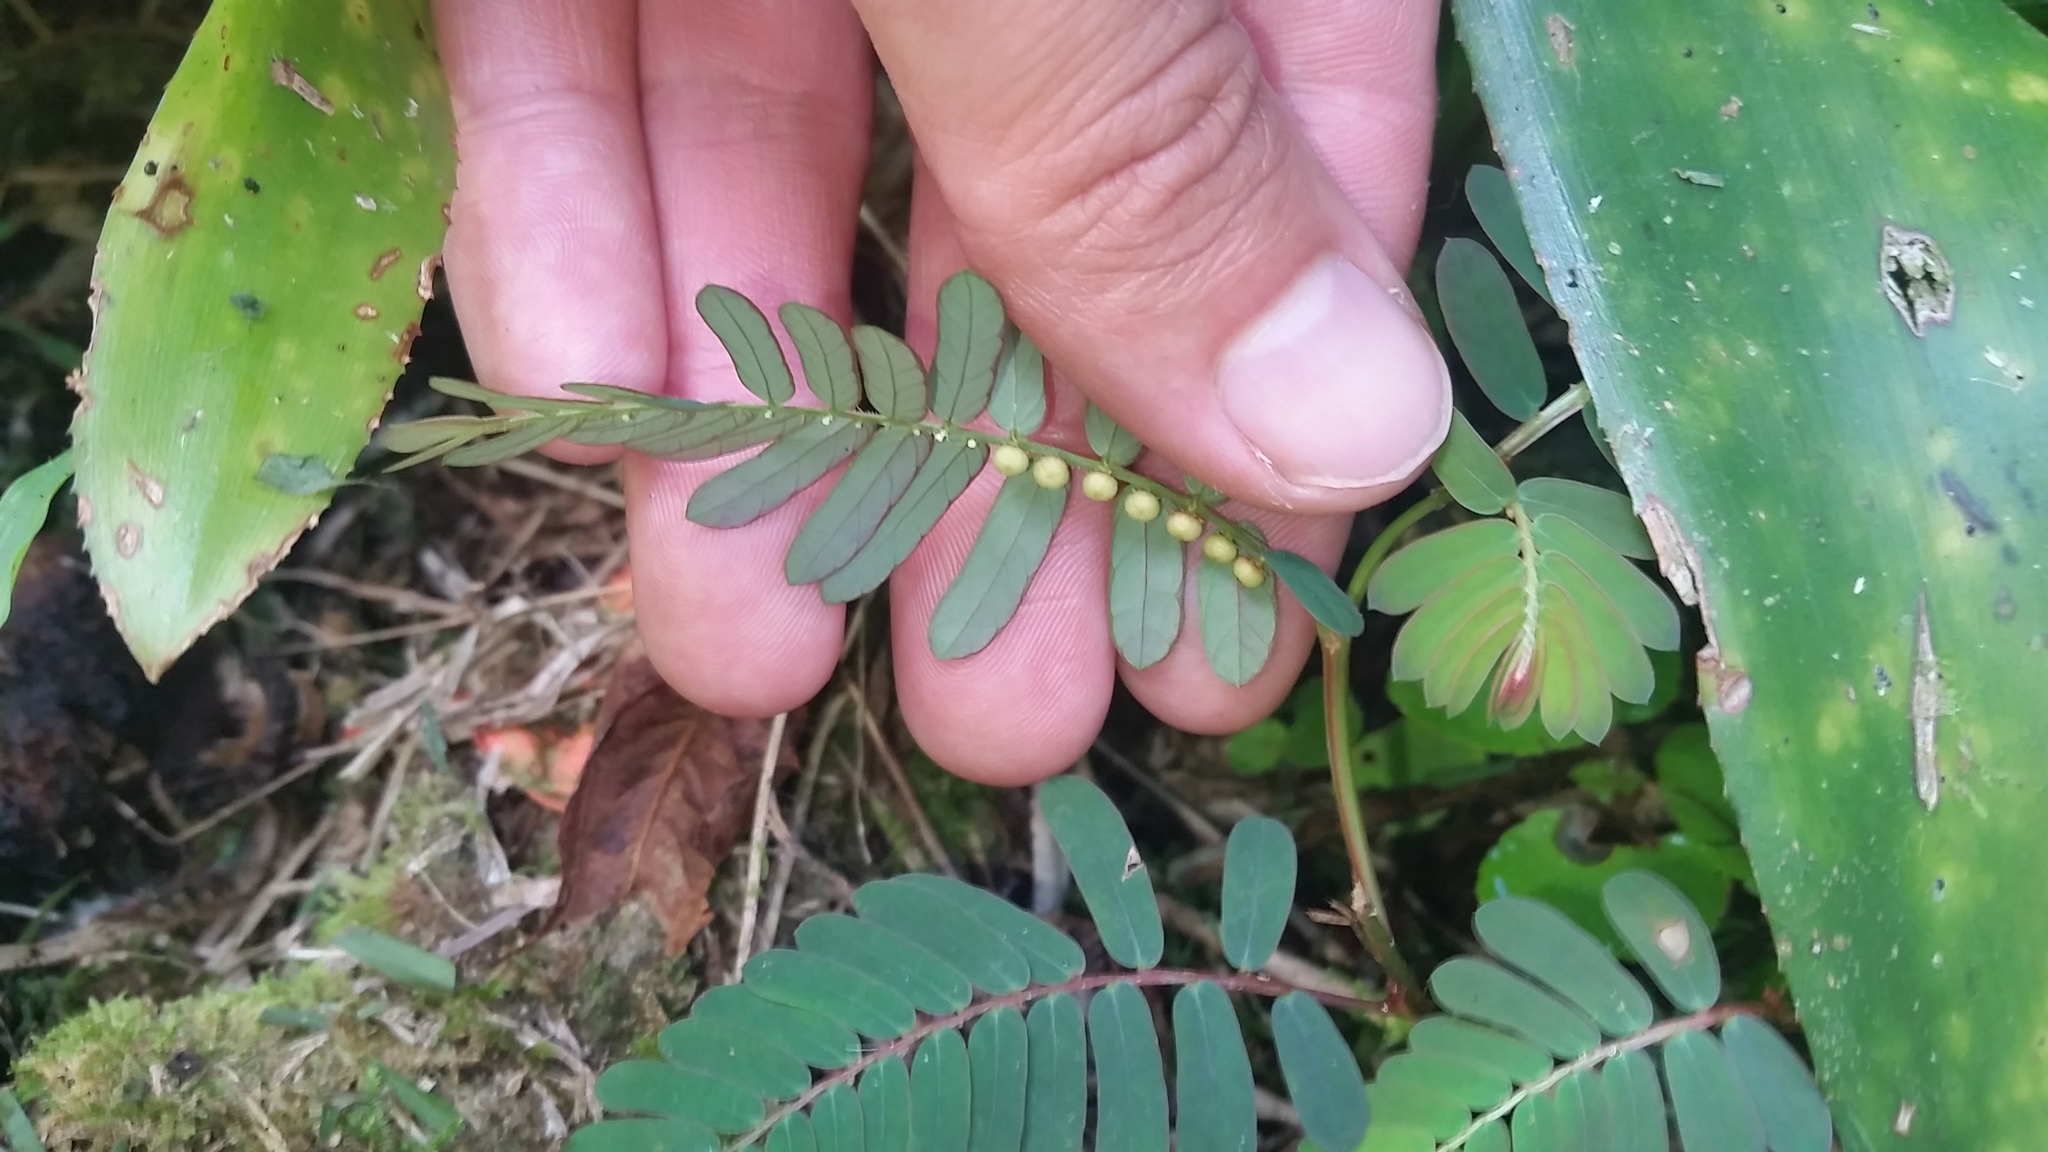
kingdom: Plantae
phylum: Tracheophyta
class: Magnoliopsida
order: Malpighiales
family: Phyllanthaceae
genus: Phyllanthus
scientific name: Phyllanthus urinaria
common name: Chamber bitter
